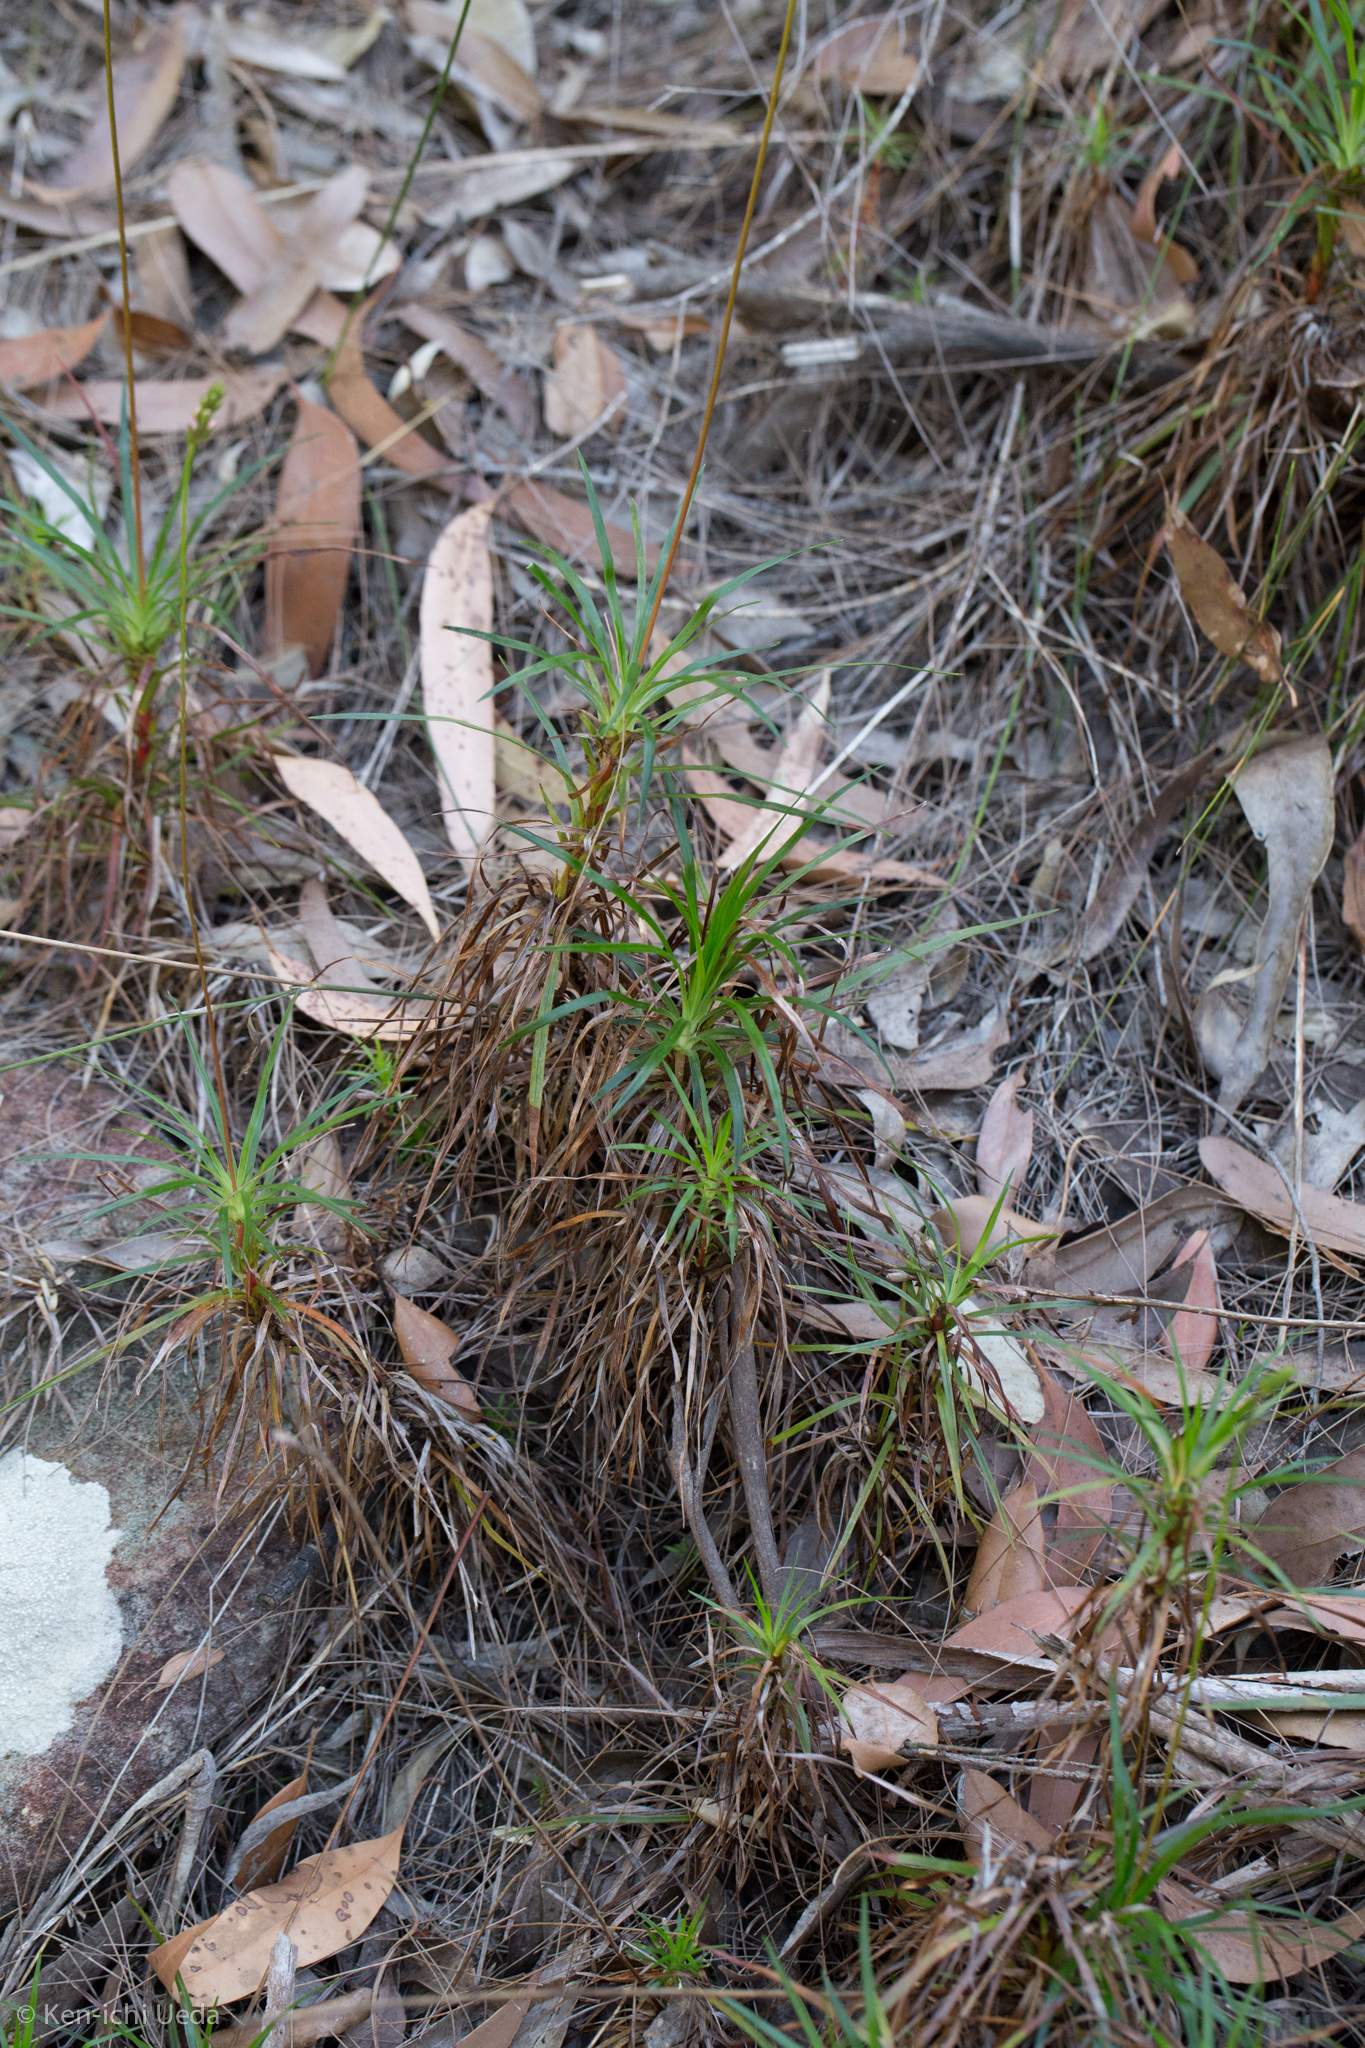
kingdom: Plantae
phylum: Tracheophyta
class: Magnoliopsida
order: Asterales
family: Stylidiaceae
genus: Stylidium
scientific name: Stylidium productum
